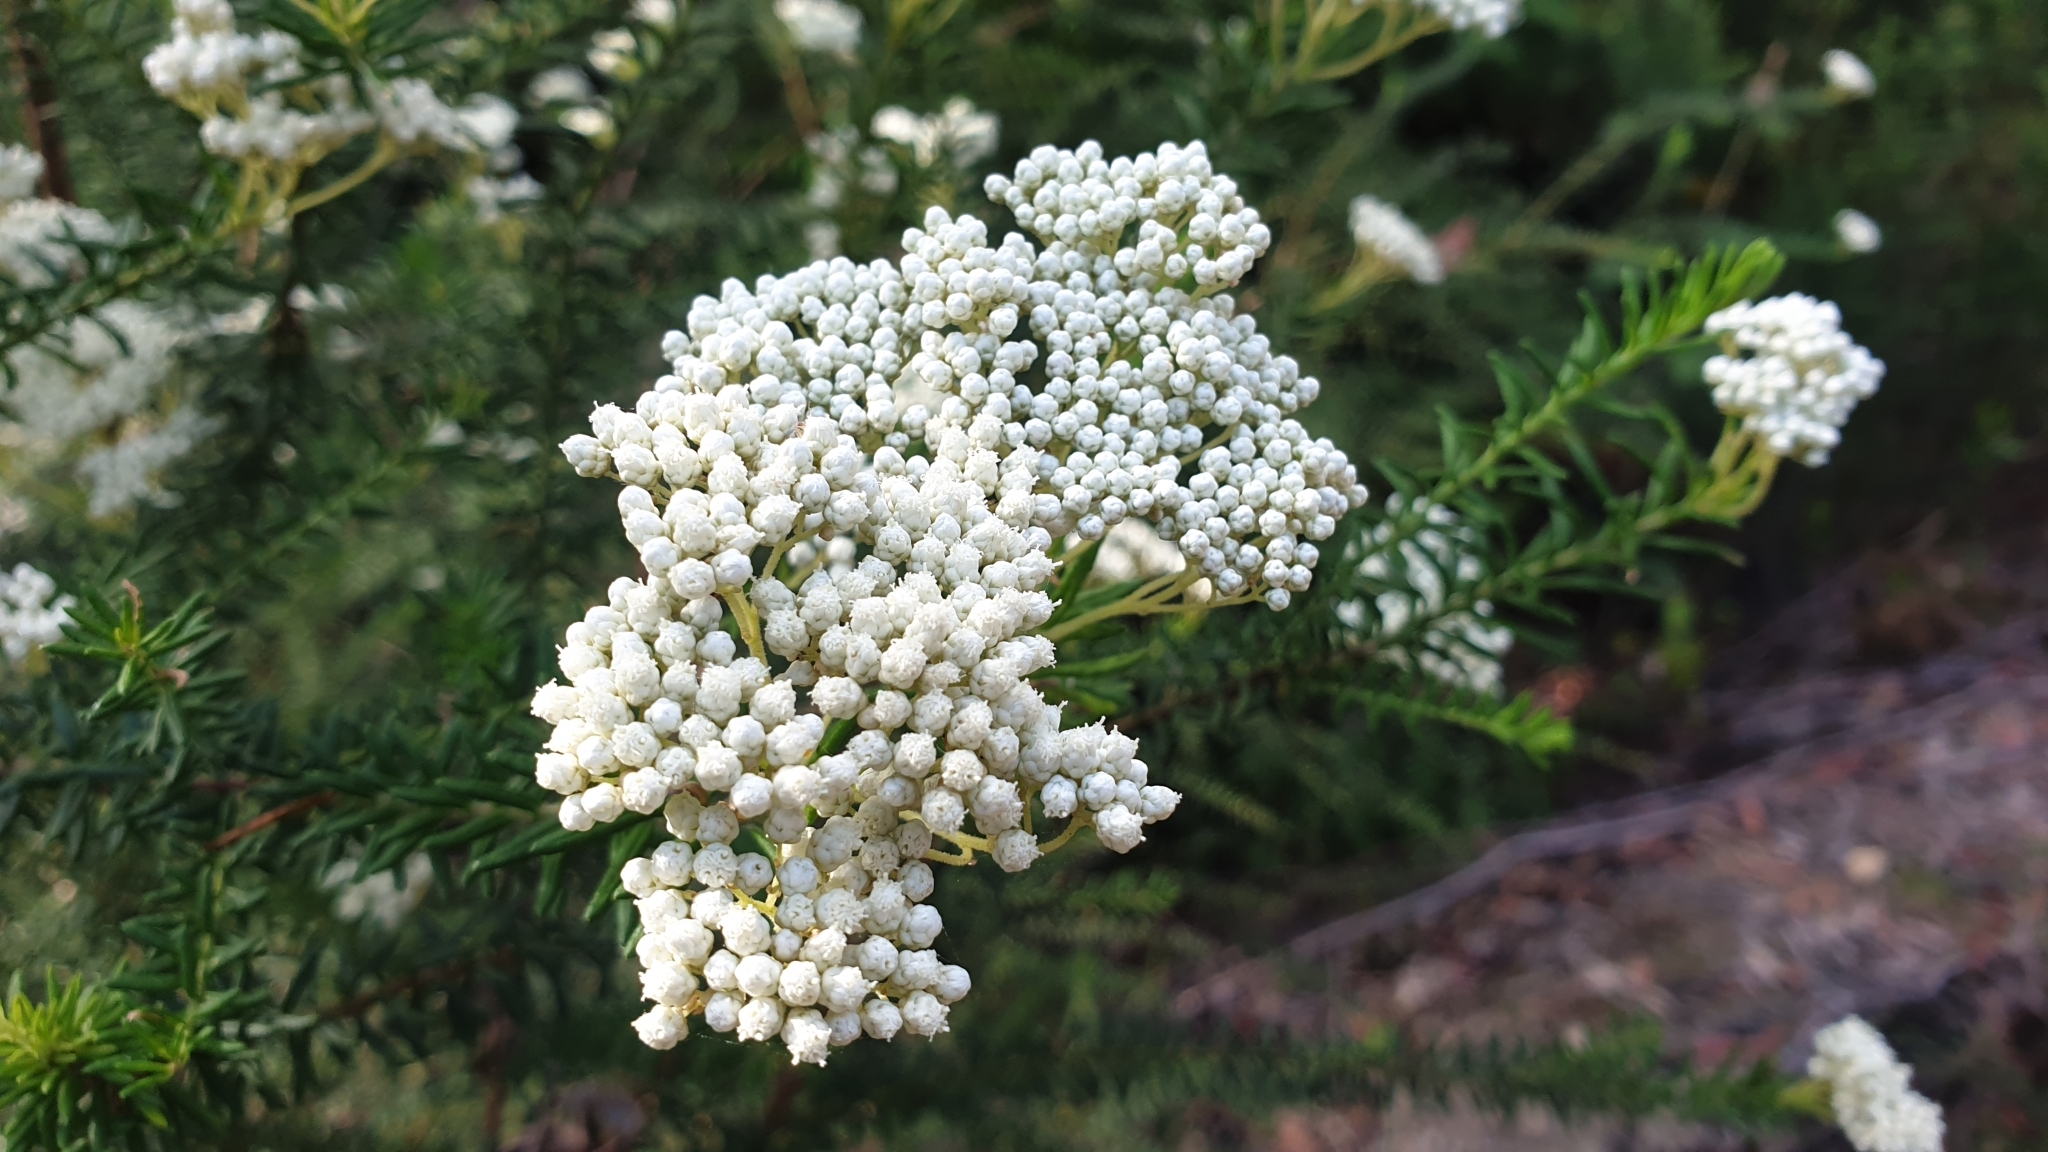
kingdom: Plantae
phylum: Tracheophyta
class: Magnoliopsida
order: Asterales
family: Asteraceae
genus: Ozothamnus
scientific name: Ozothamnus diosmifolius
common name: White-dogwood
